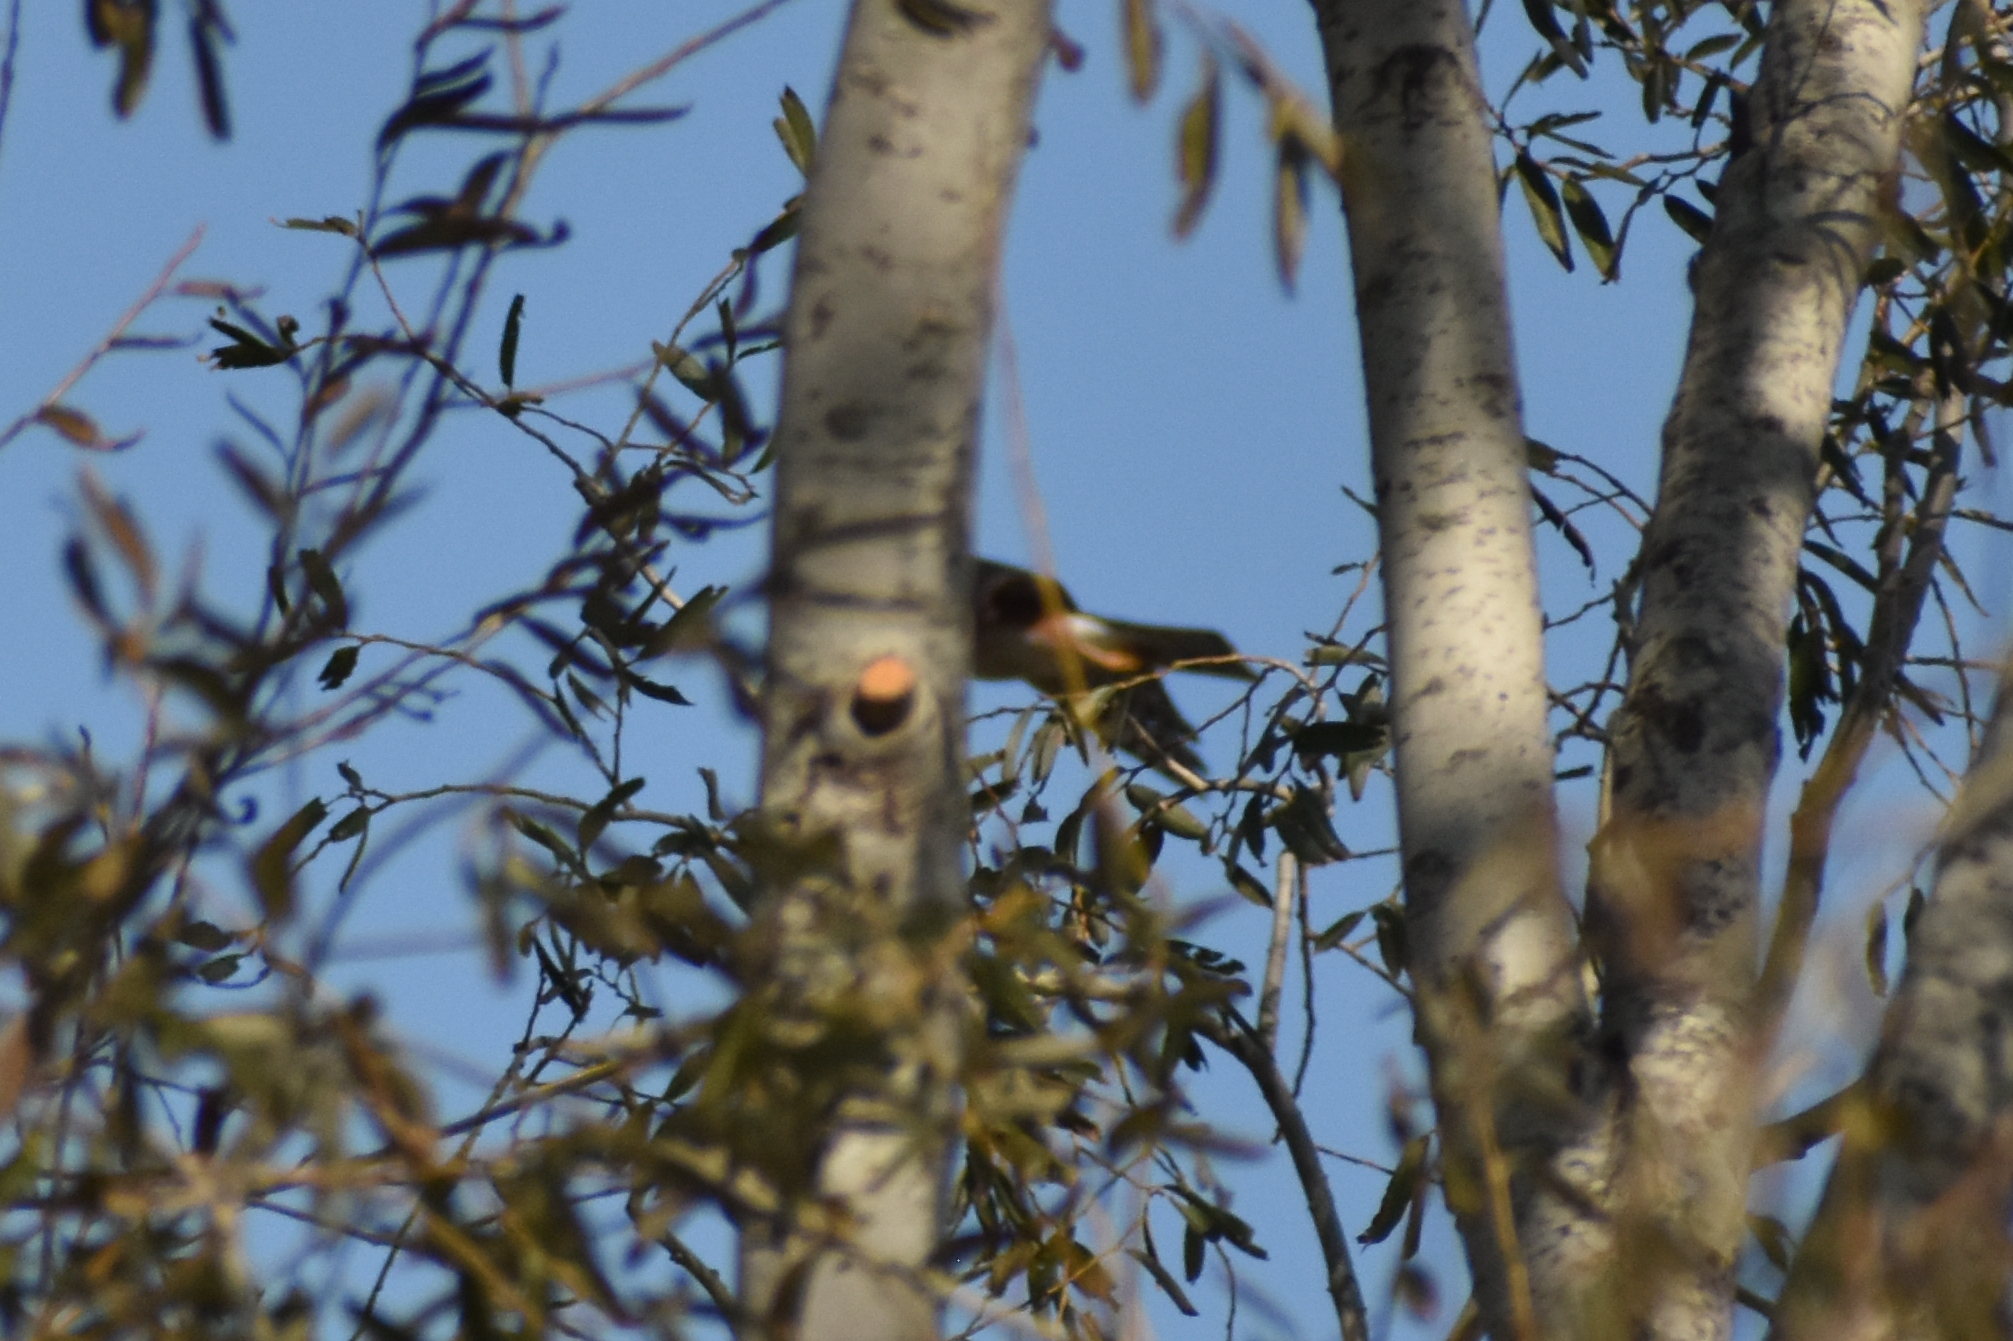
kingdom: Animalia
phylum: Chordata
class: Aves
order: Accipitriformes
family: Accipitridae
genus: Accipiter
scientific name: Accipiter striatus
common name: Sharp-shinned hawk
